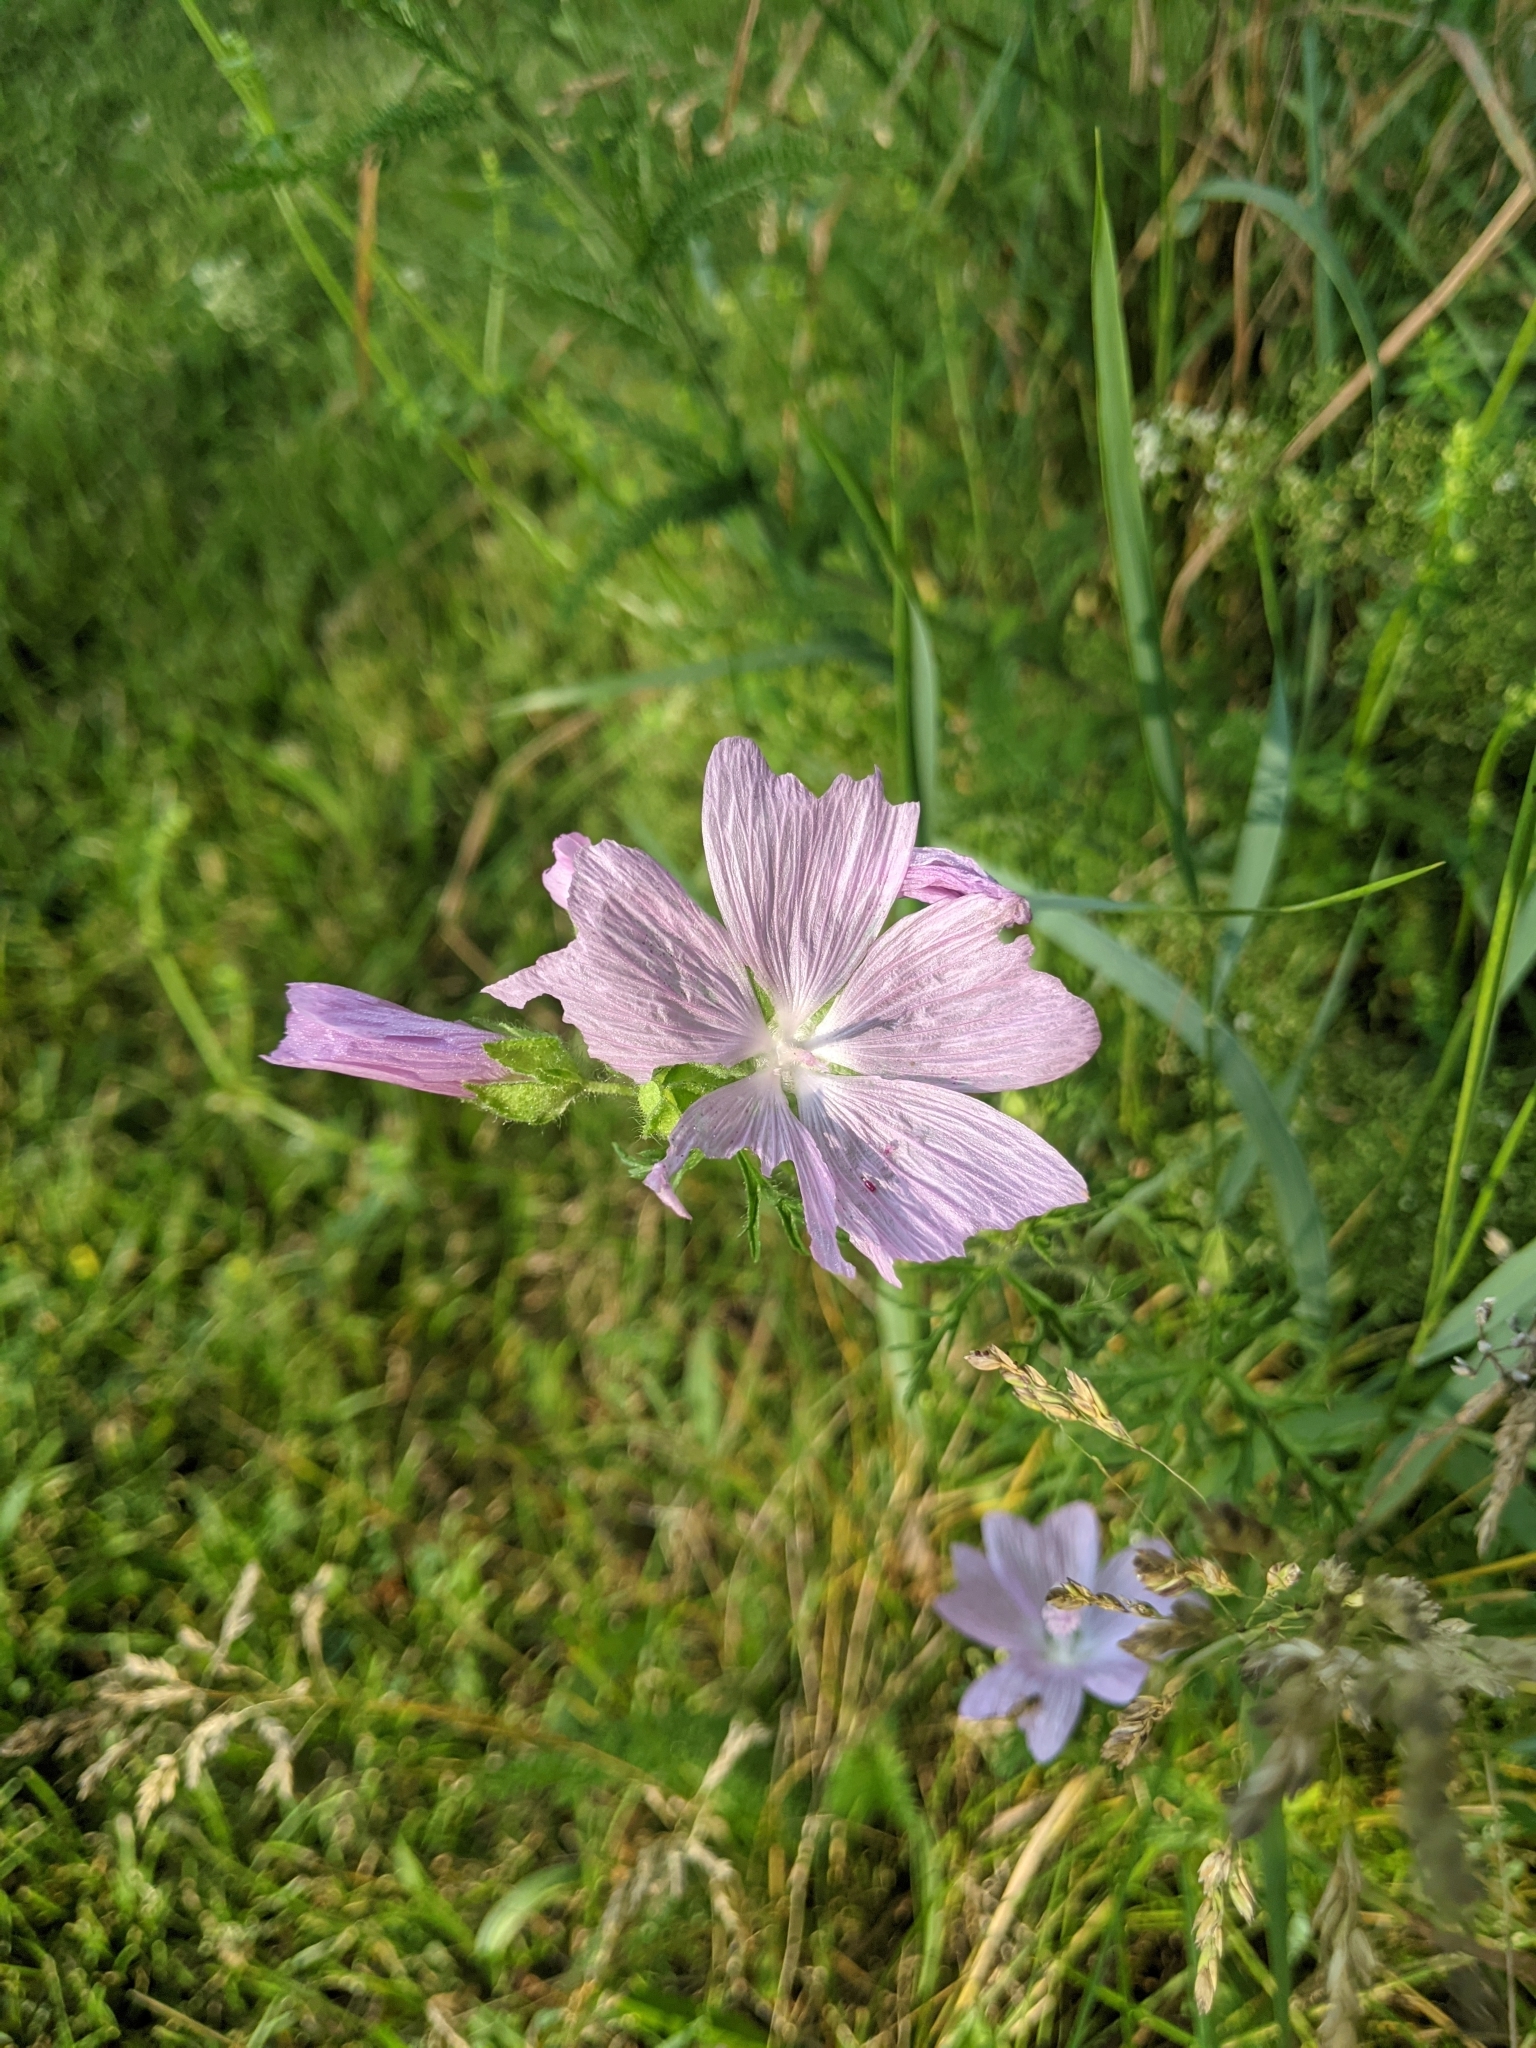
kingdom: Plantae
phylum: Tracheophyta
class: Magnoliopsida
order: Malvales
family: Malvaceae
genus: Malva
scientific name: Malva moschata
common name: Musk mallow
